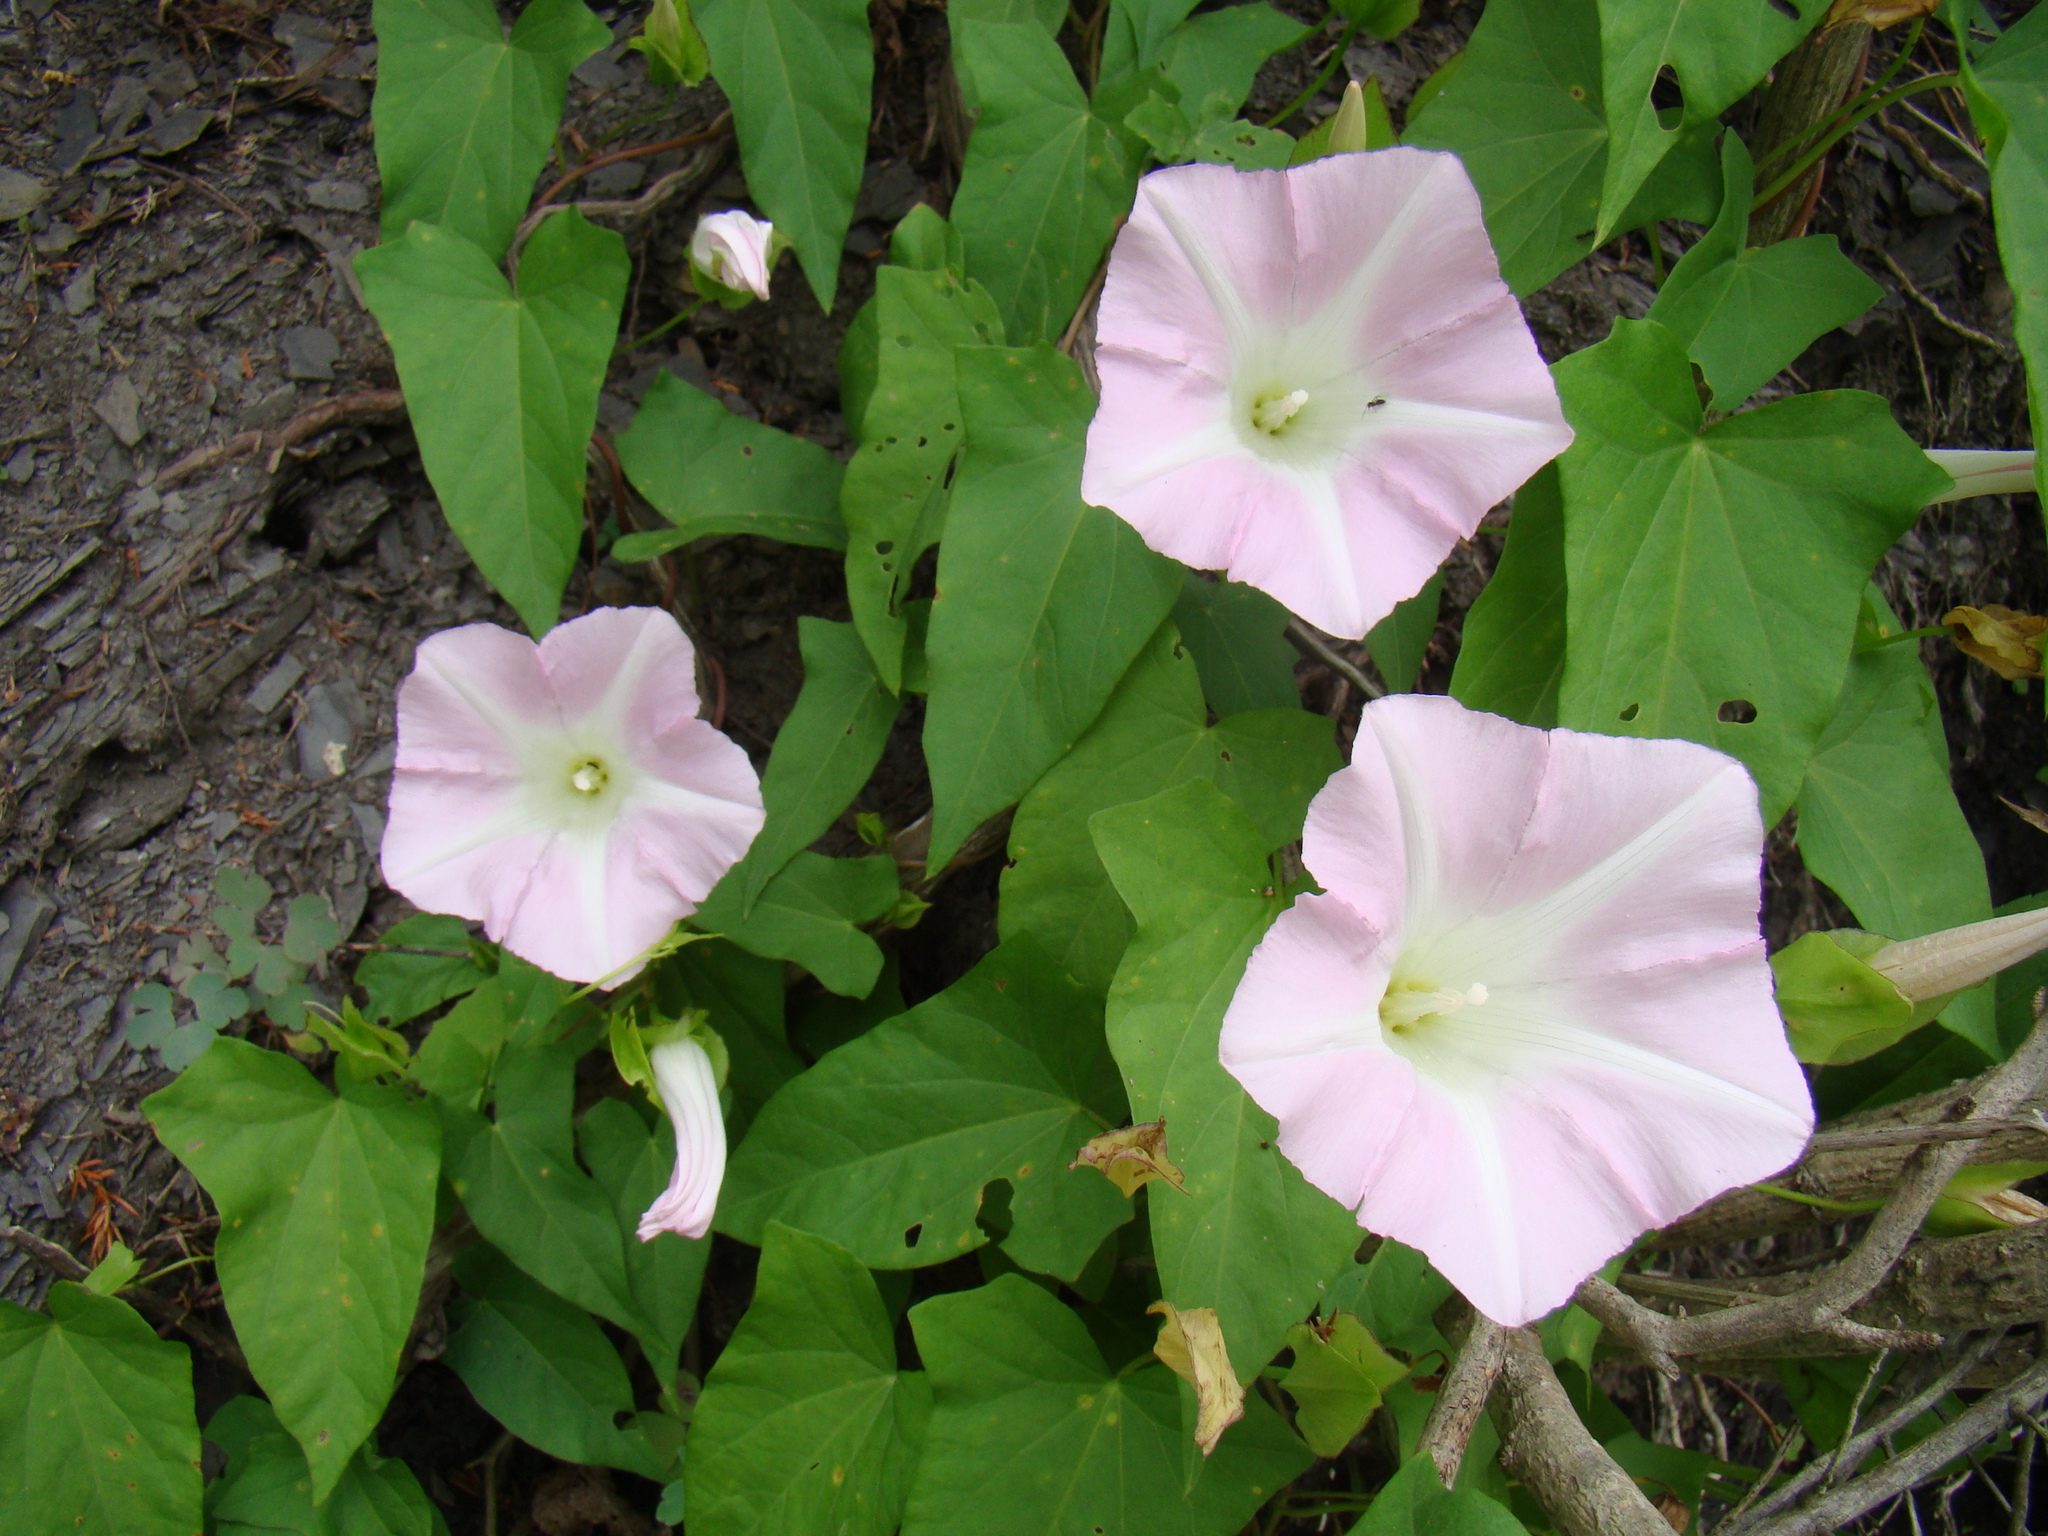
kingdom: Plantae
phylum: Tracheophyta
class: Magnoliopsida
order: Solanales
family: Convolvulaceae
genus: Calystegia
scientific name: Calystegia sepium
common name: Hedge bindweed
